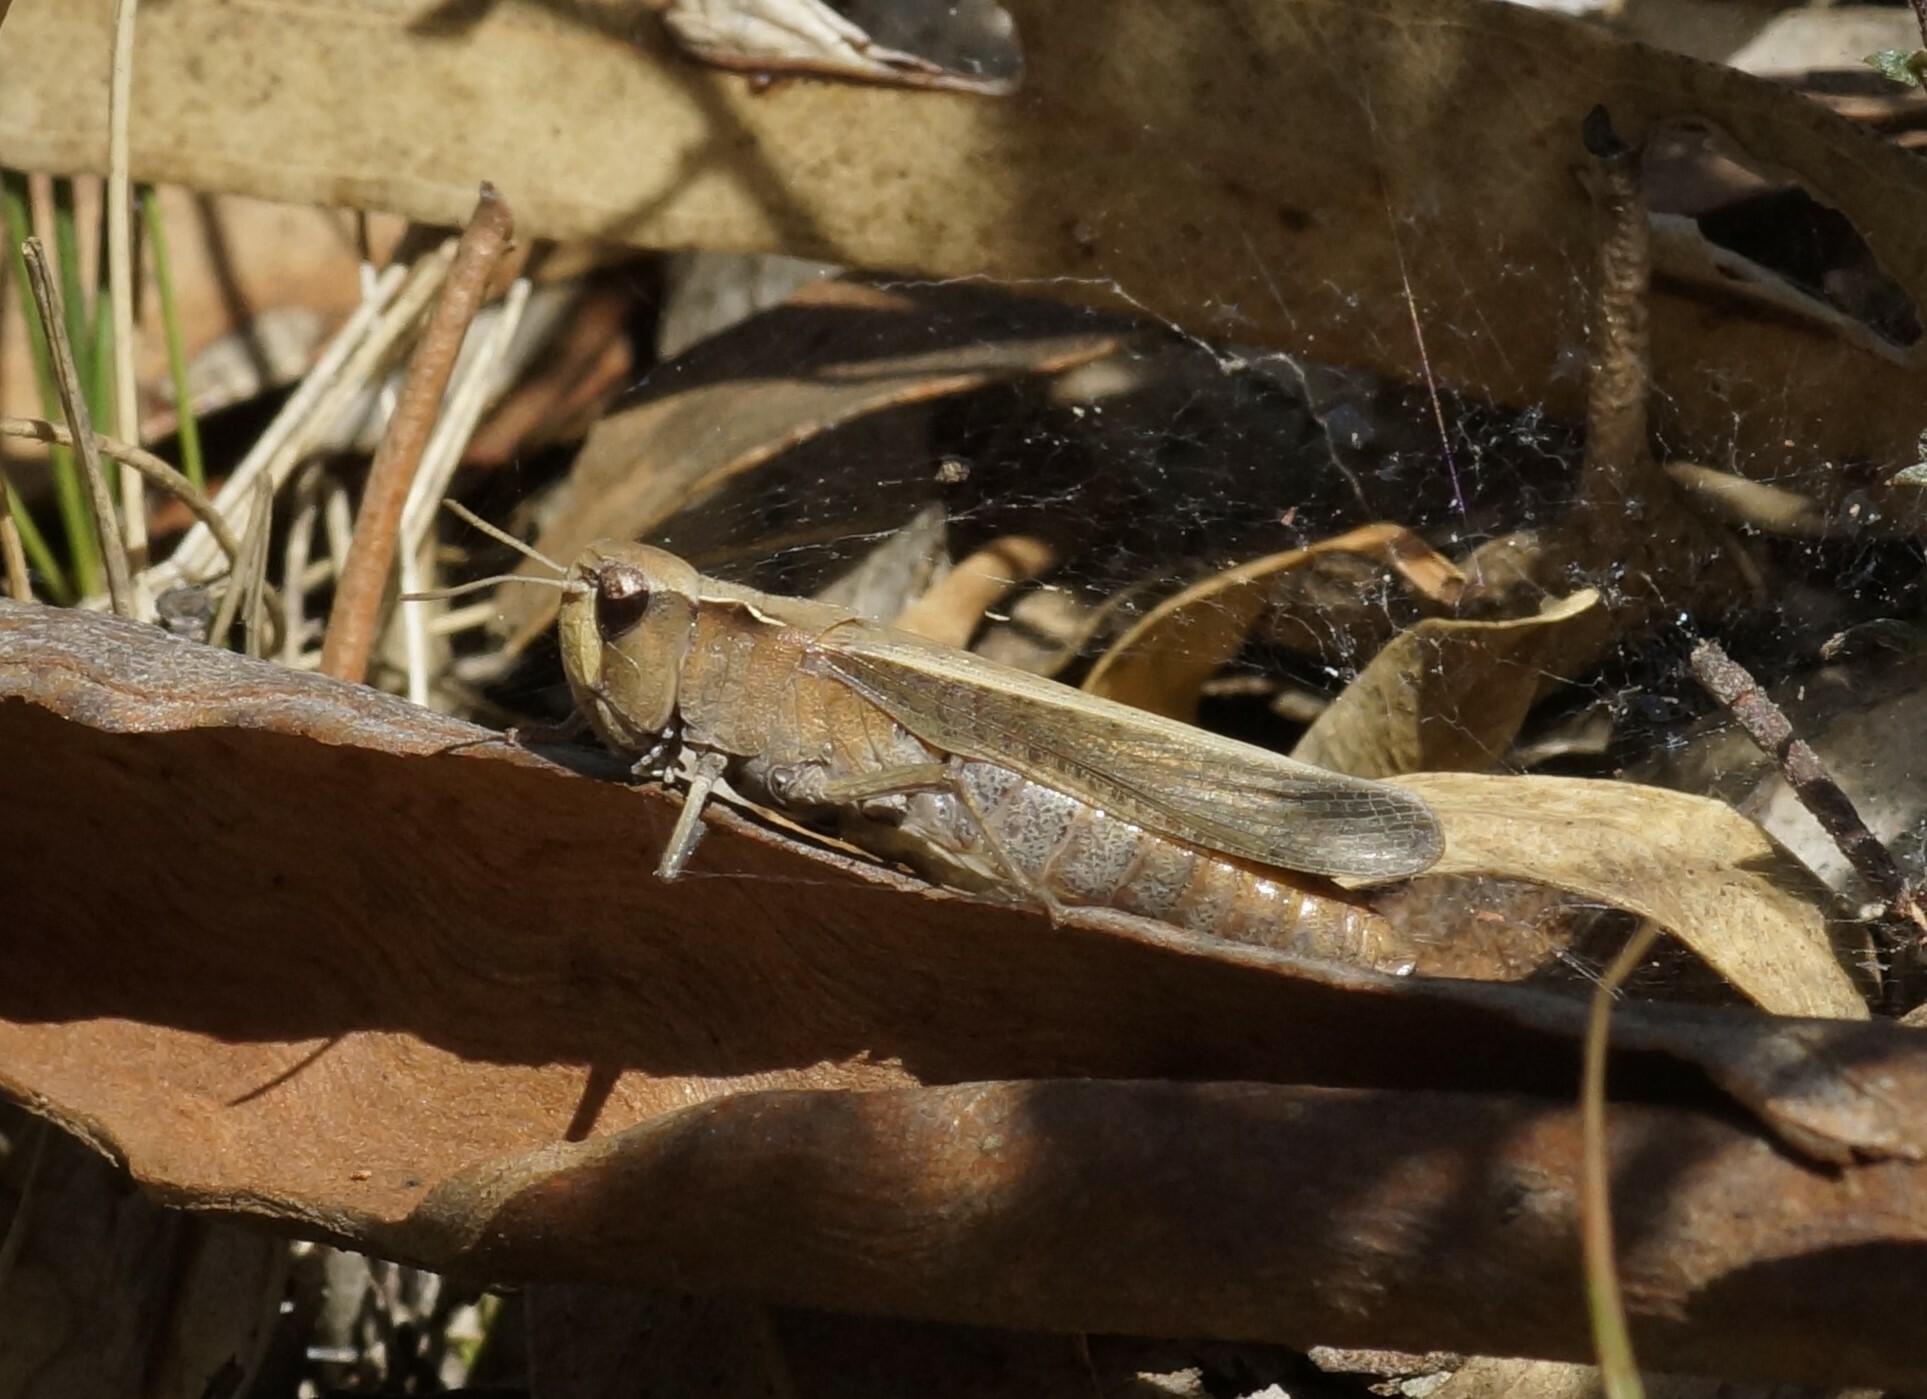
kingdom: Animalia
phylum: Arthropoda
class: Insecta
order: Orthoptera
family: Acrididae
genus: Cryptobothrus
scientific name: Cryptobothrus chrysophorus
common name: Golden bandwing
